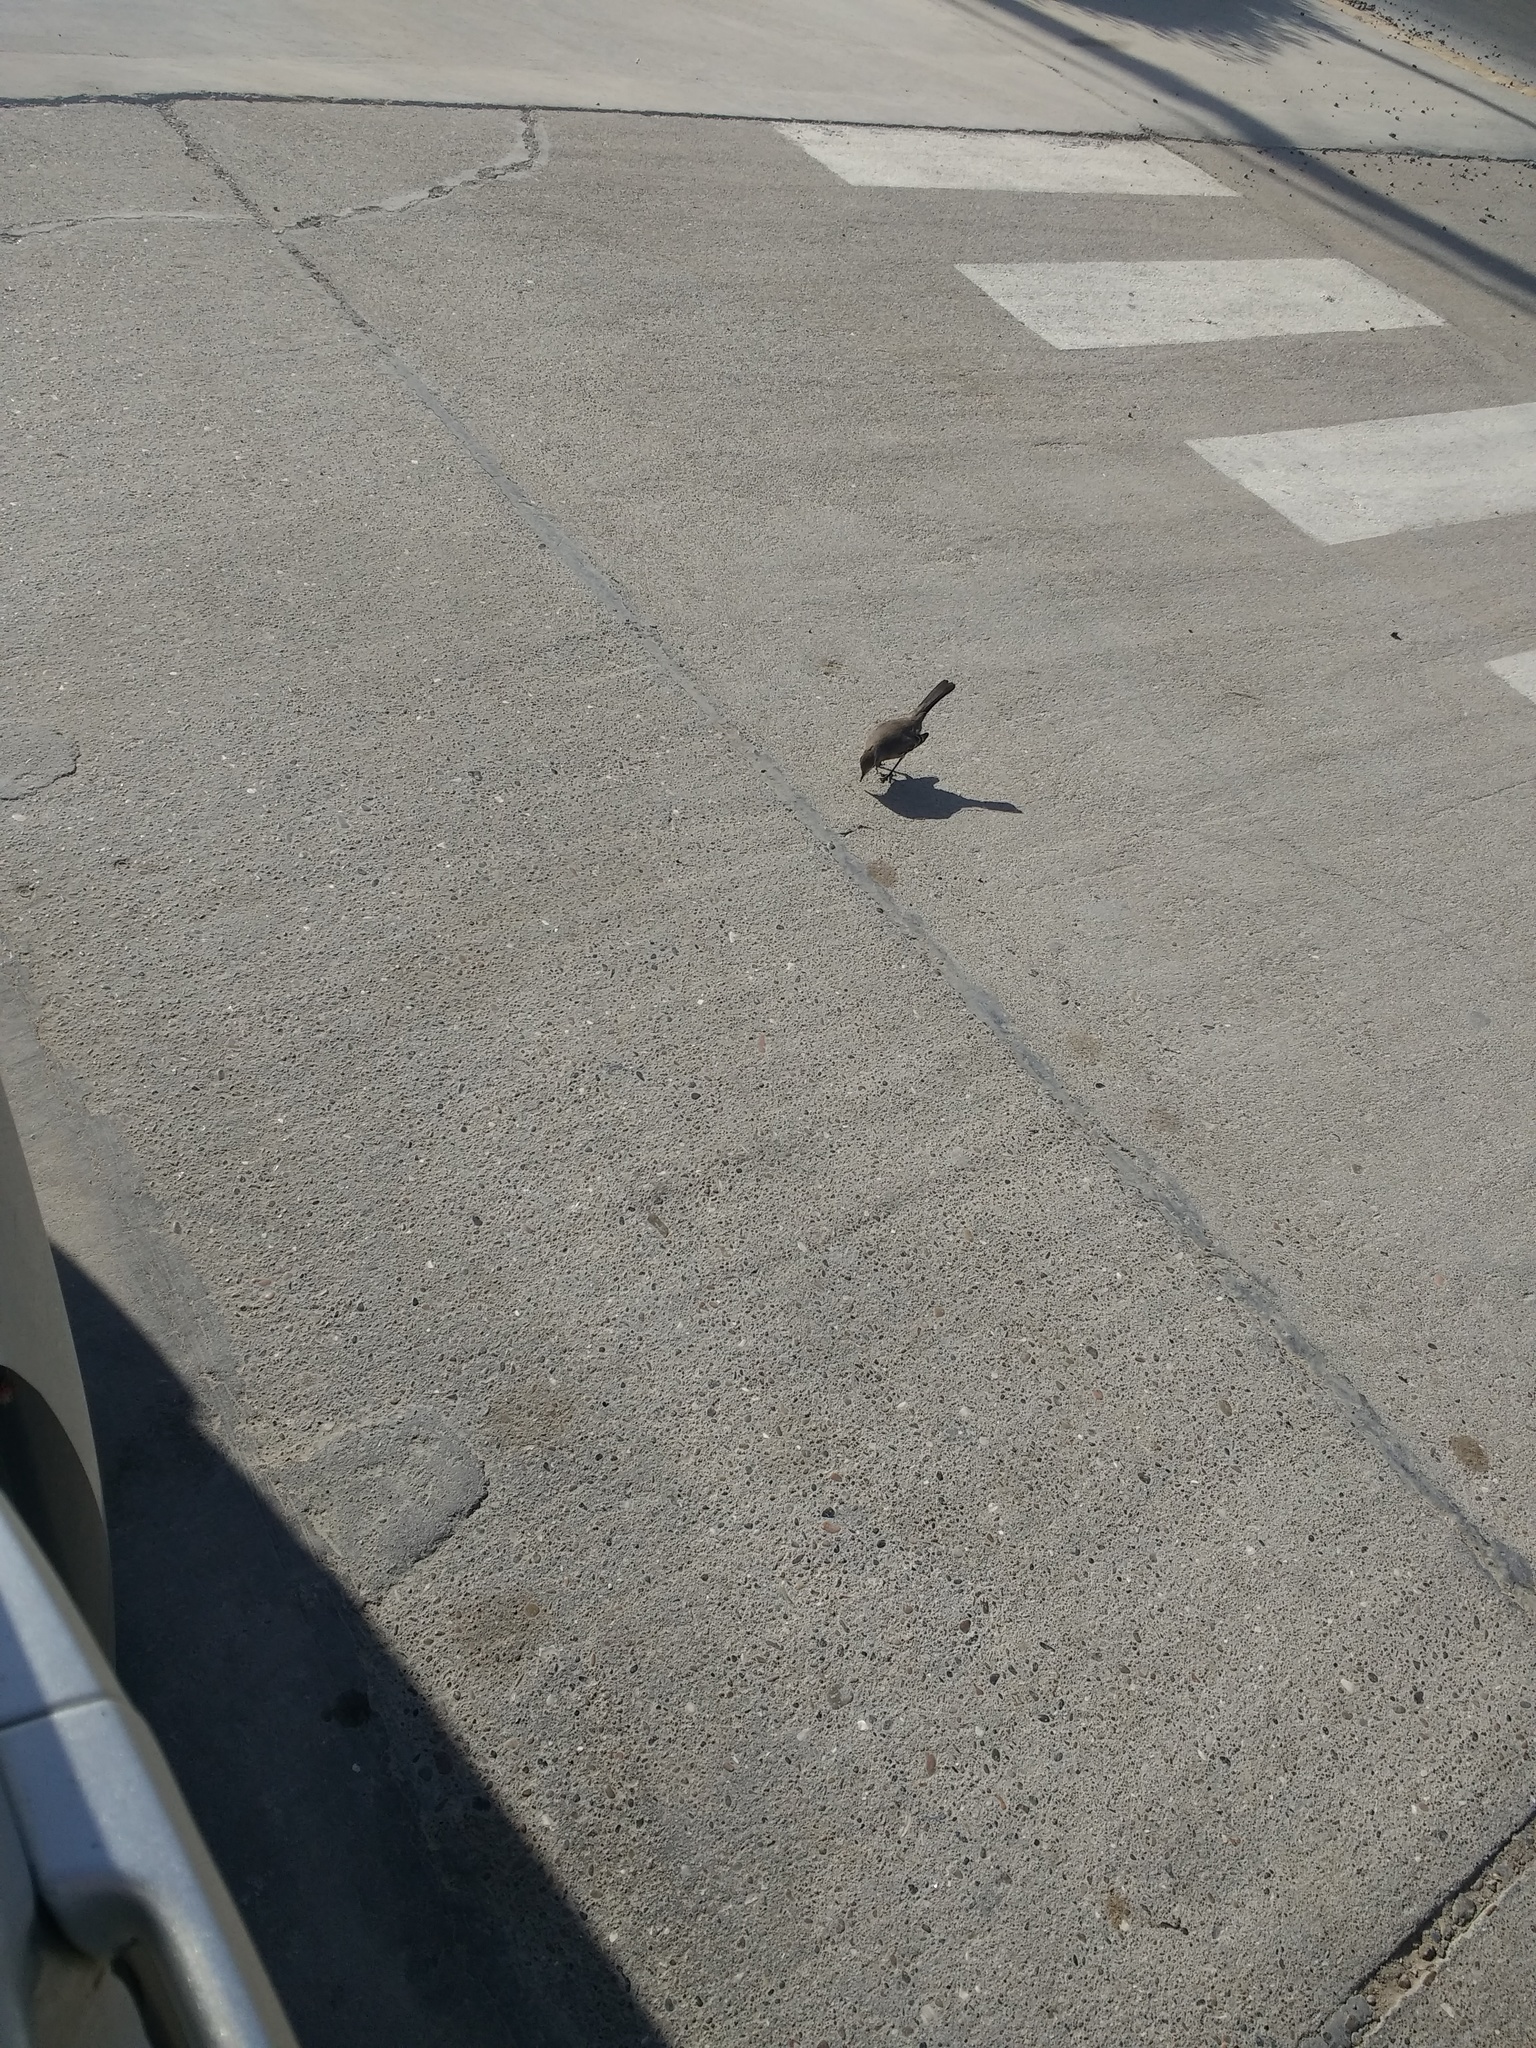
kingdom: Animalia
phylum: Chordata
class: Aves
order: Passeriformes
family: Mimidae
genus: Mimus
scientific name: Mimus patagonicus
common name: Patagonian mockingbird
